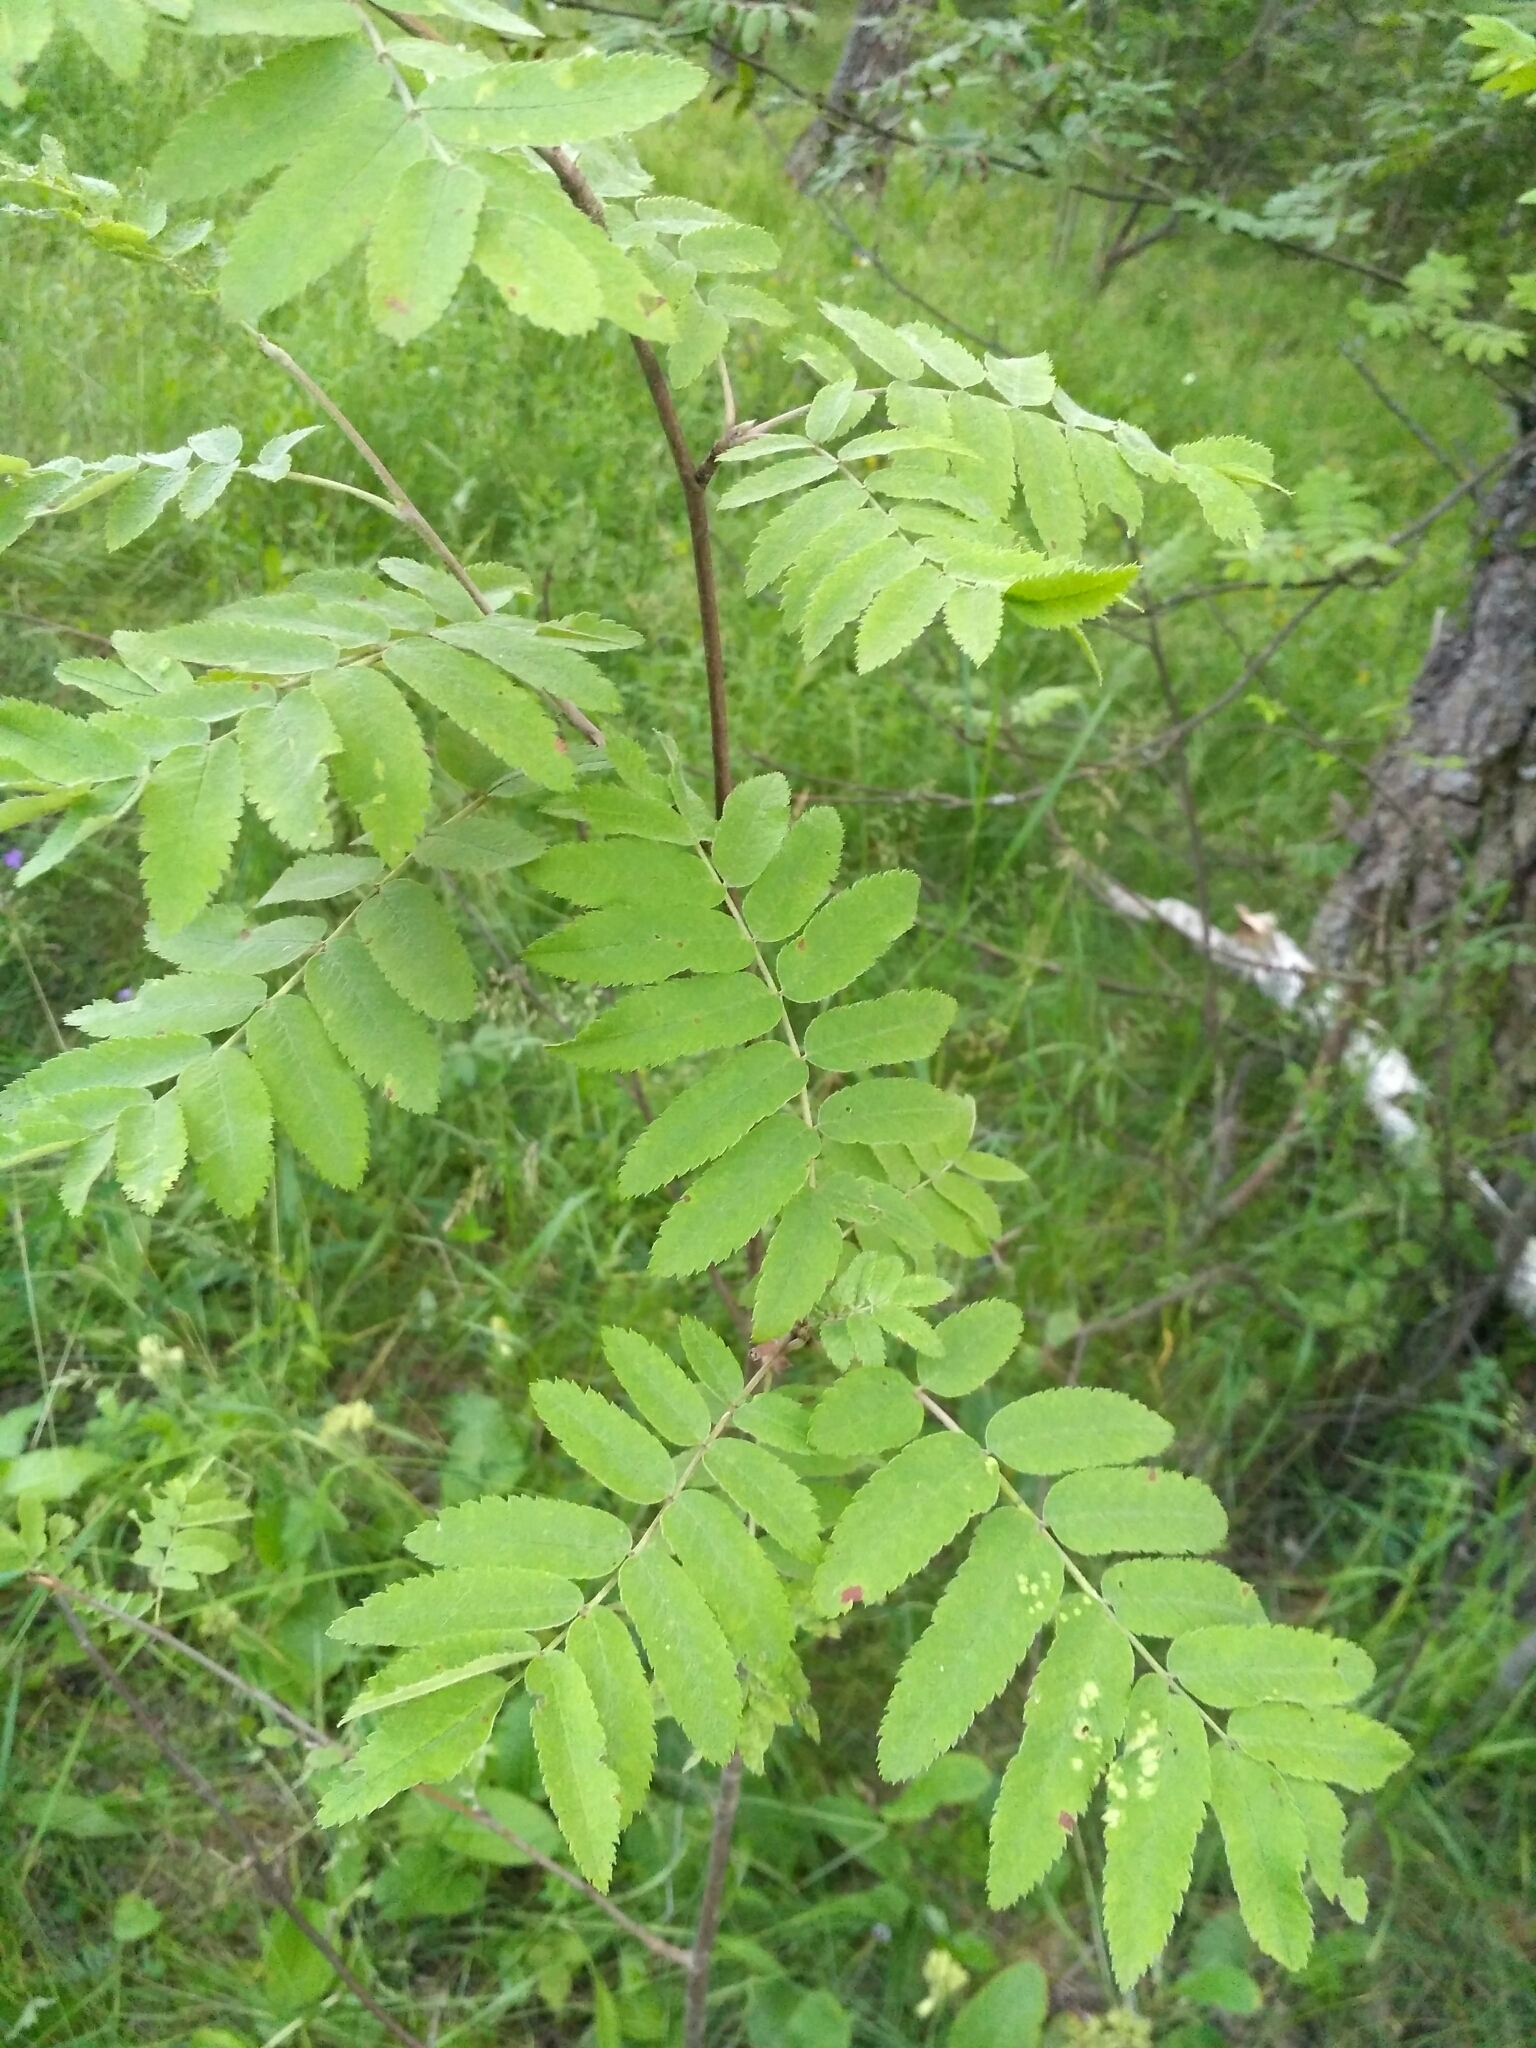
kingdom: Plantae
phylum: Tracheophyta
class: Magnoliopsida
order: Rosales
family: Rosaceae
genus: Sorbus
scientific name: Sorbus aucuparia
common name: Rowan
